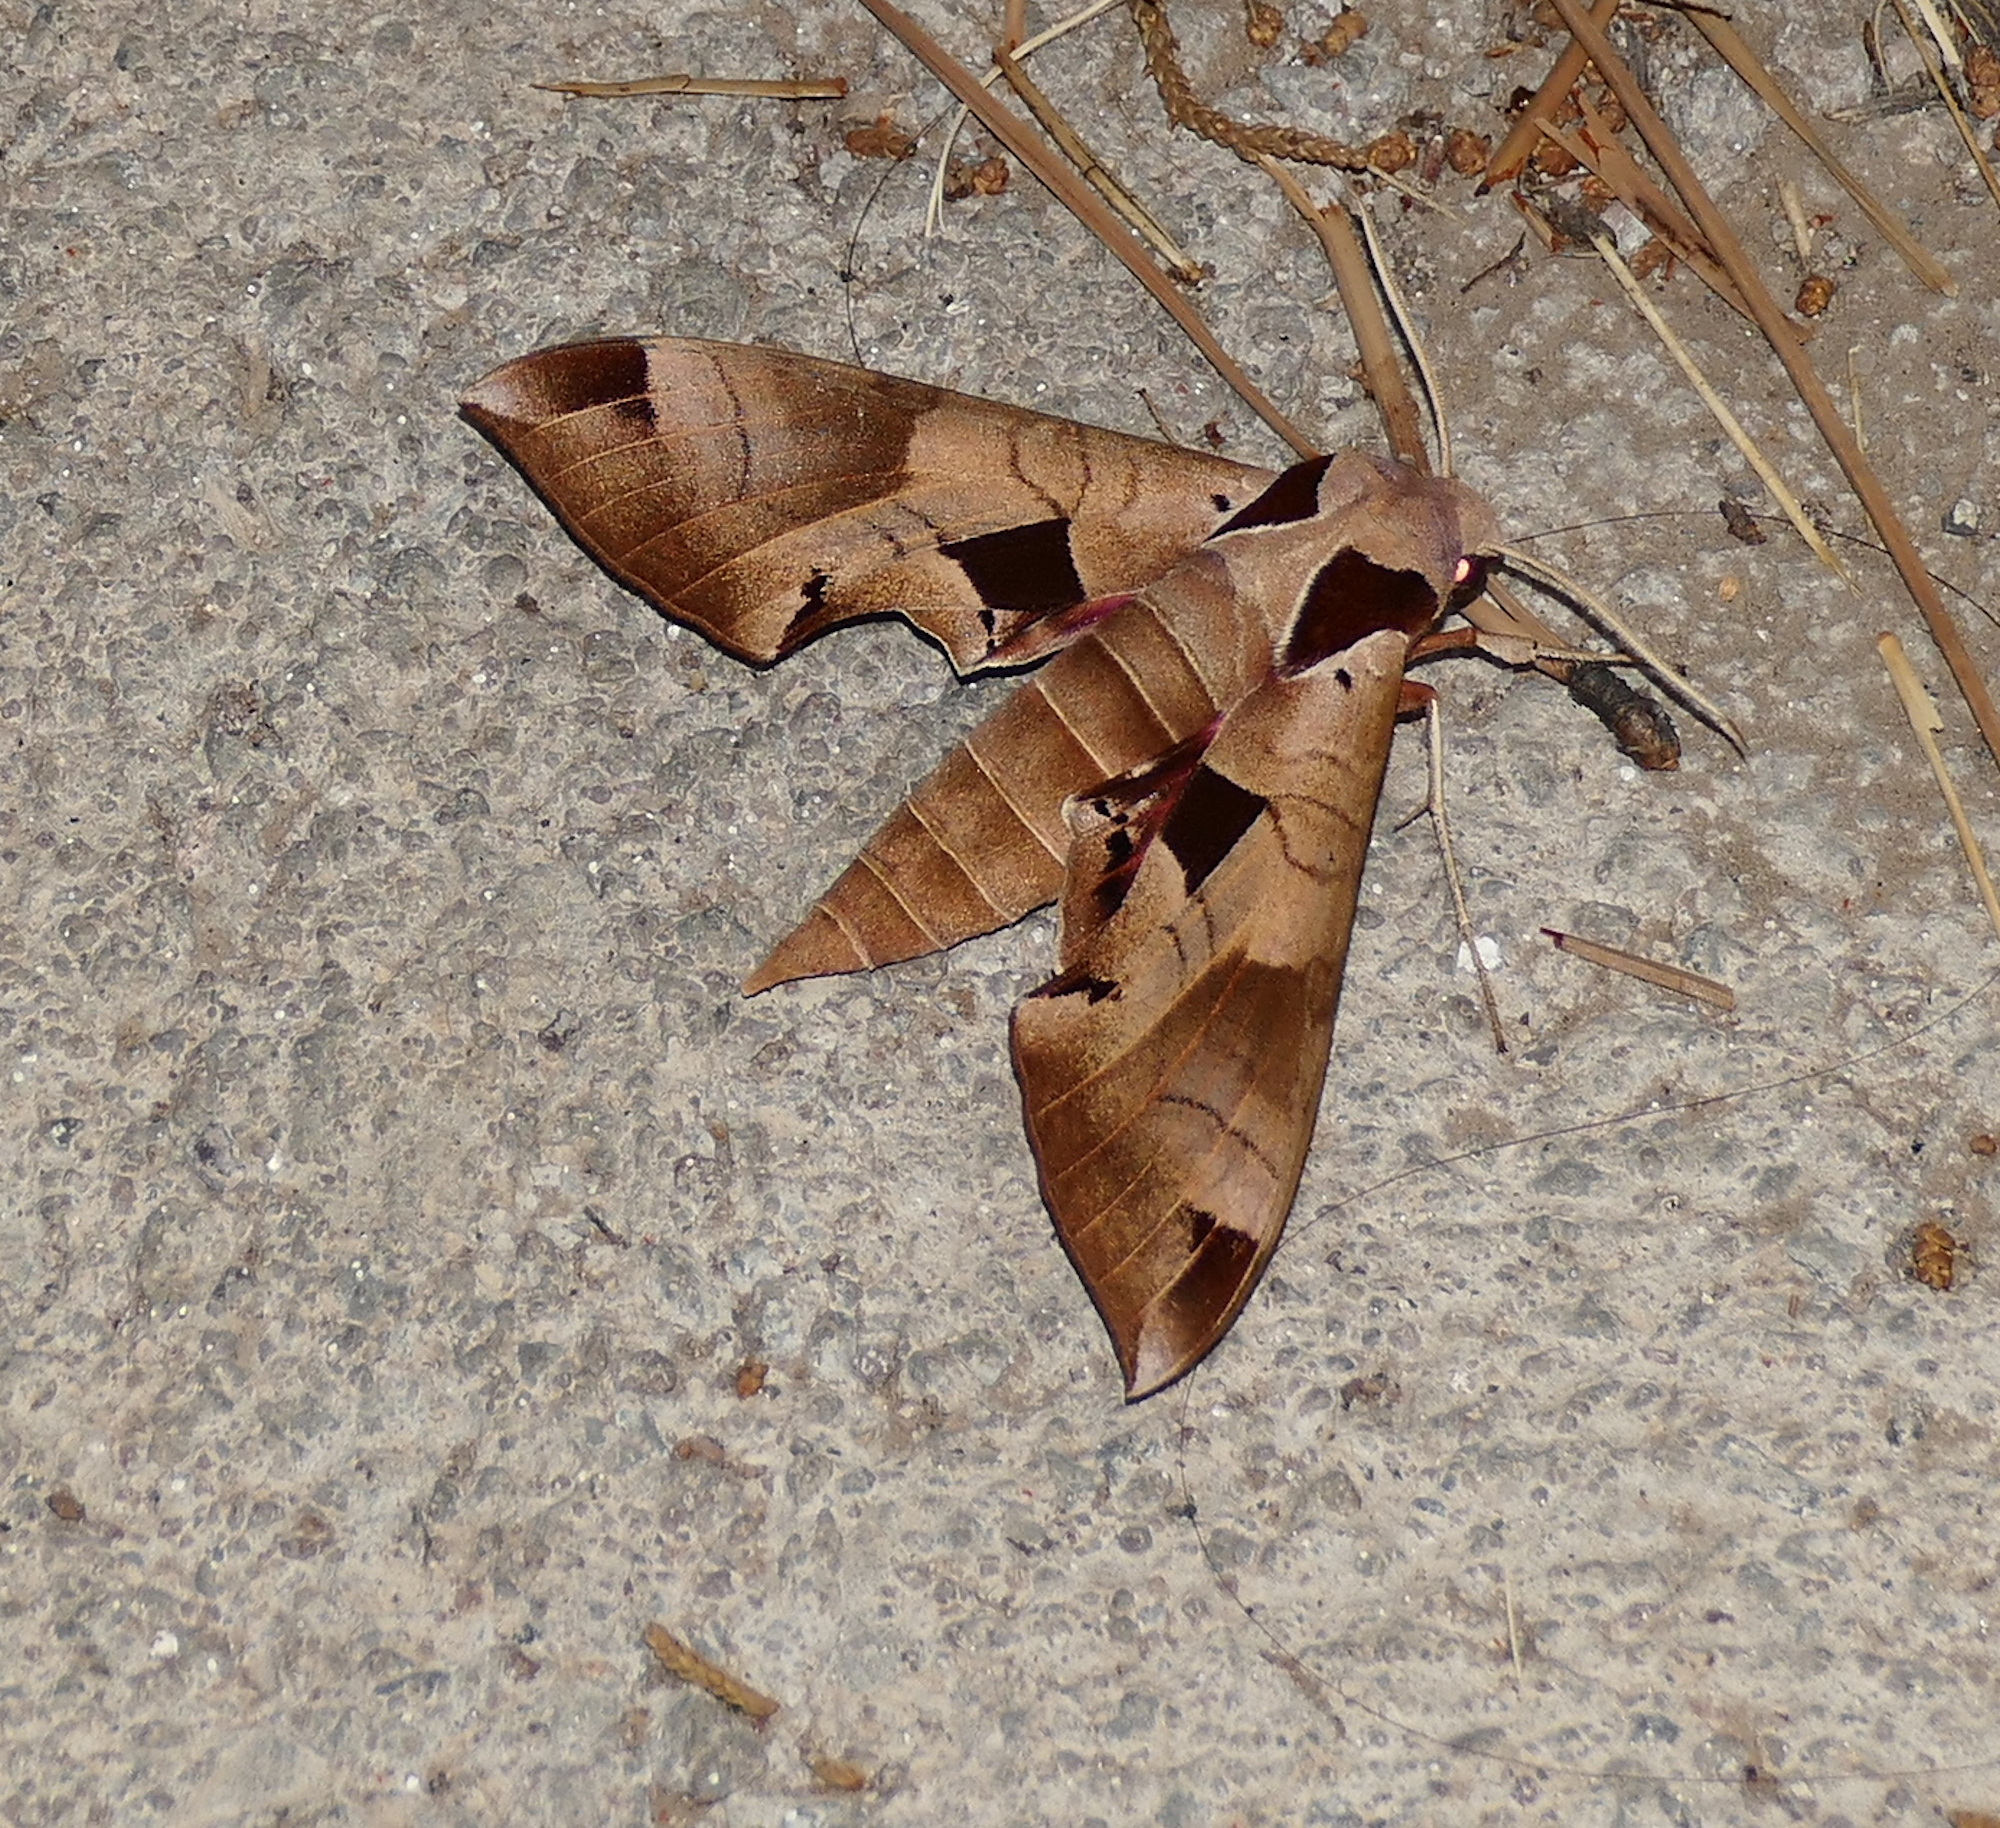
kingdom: Animalia
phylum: Arthropoda
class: Insecta
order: Lepidoptera
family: Sphingidae
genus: Eumorpha
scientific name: Eumorpha achemon
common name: Achemon sphinx
